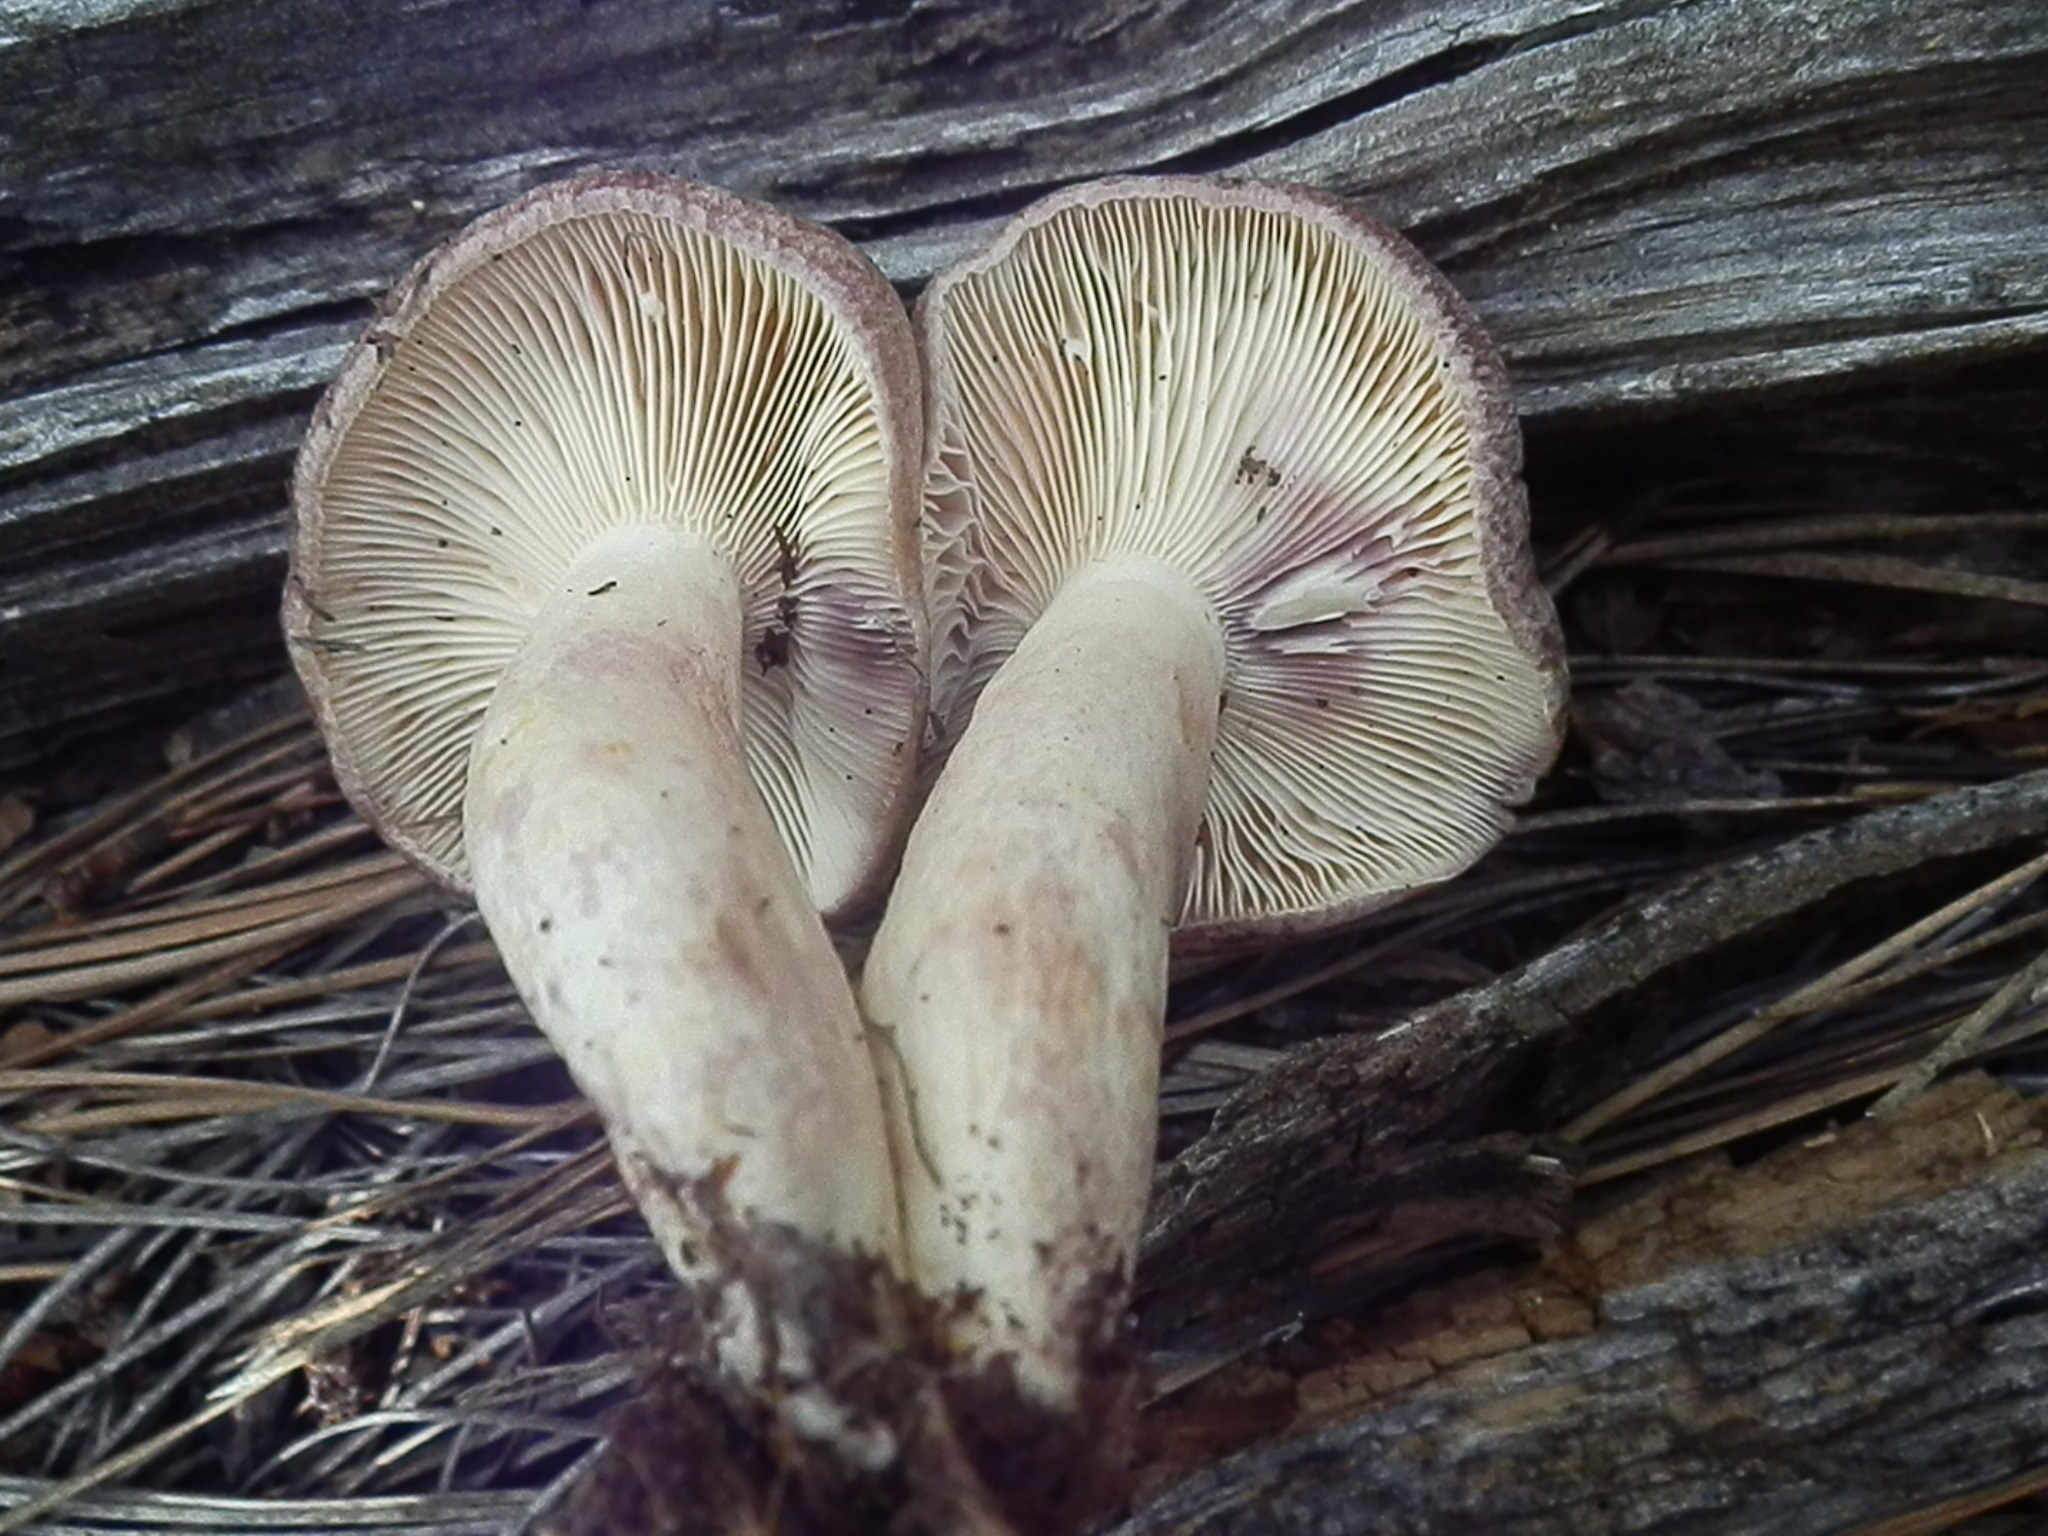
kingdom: Fungi
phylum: Basidiomycota
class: Agaricomycetes
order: Russulales
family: Russulaceae
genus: Lactarius
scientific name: Lactarius pseudouvidus
